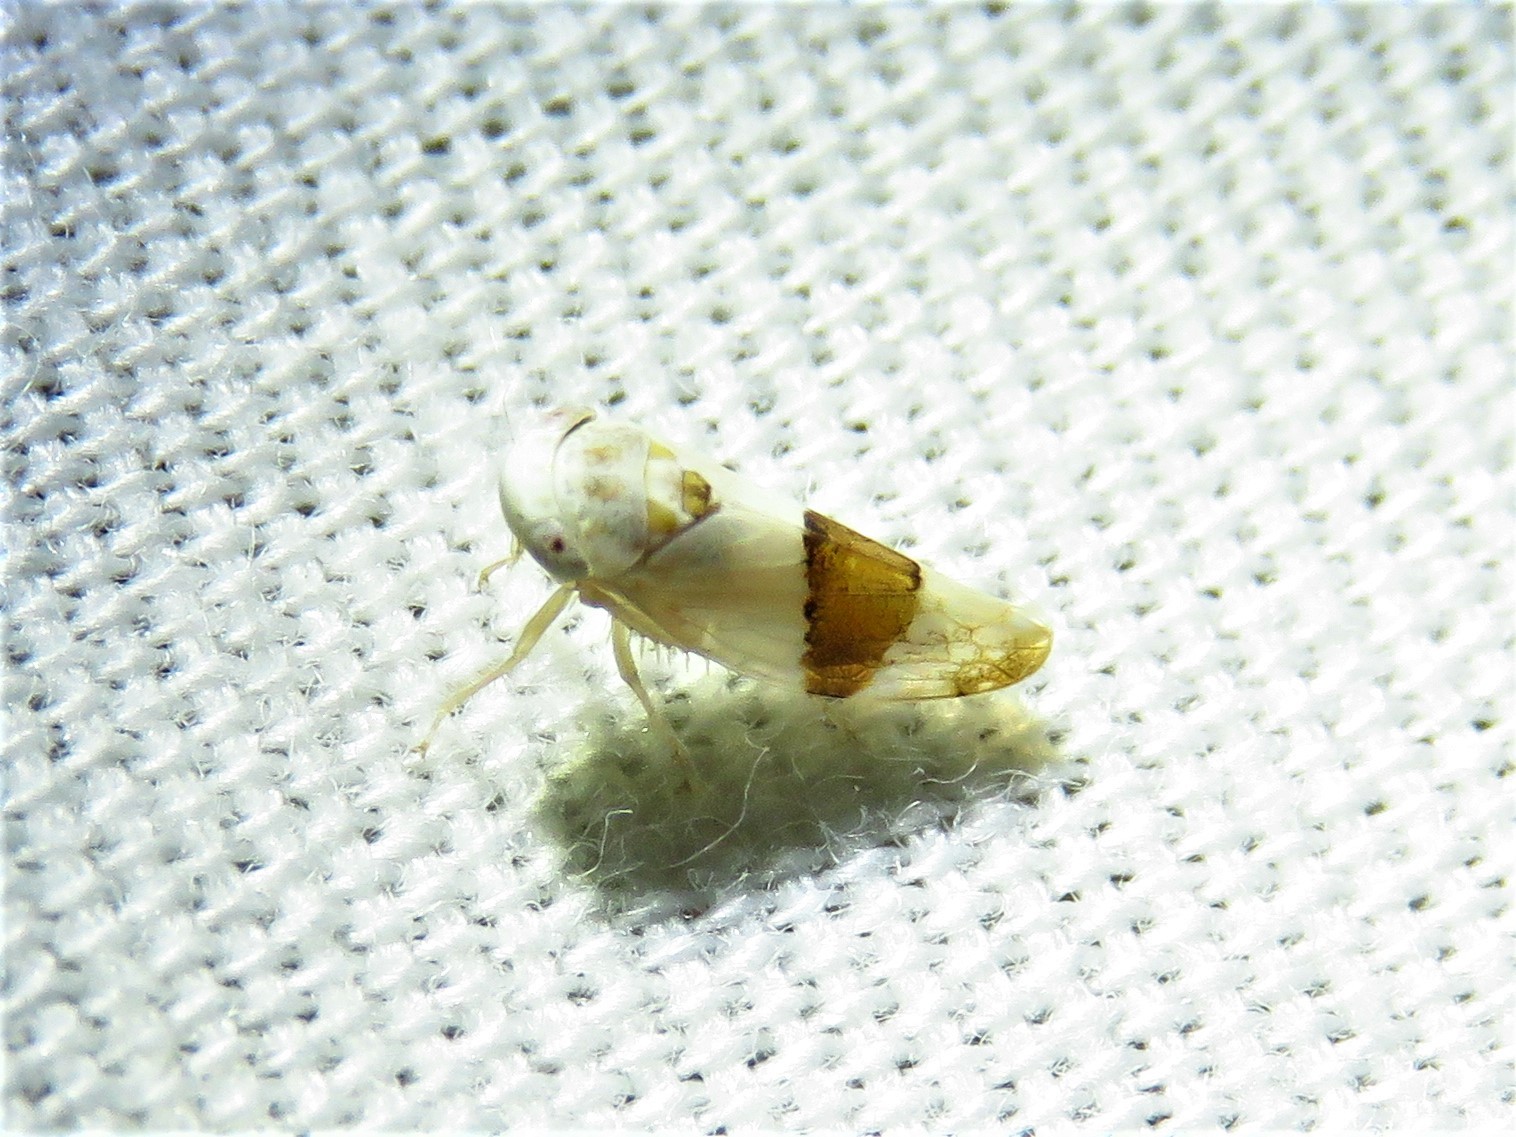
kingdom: Animalia
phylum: Arthropoda
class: Insecta
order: Hemiptera
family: Cicadellidae
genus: Norvellina
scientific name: Norvellina seminuda
